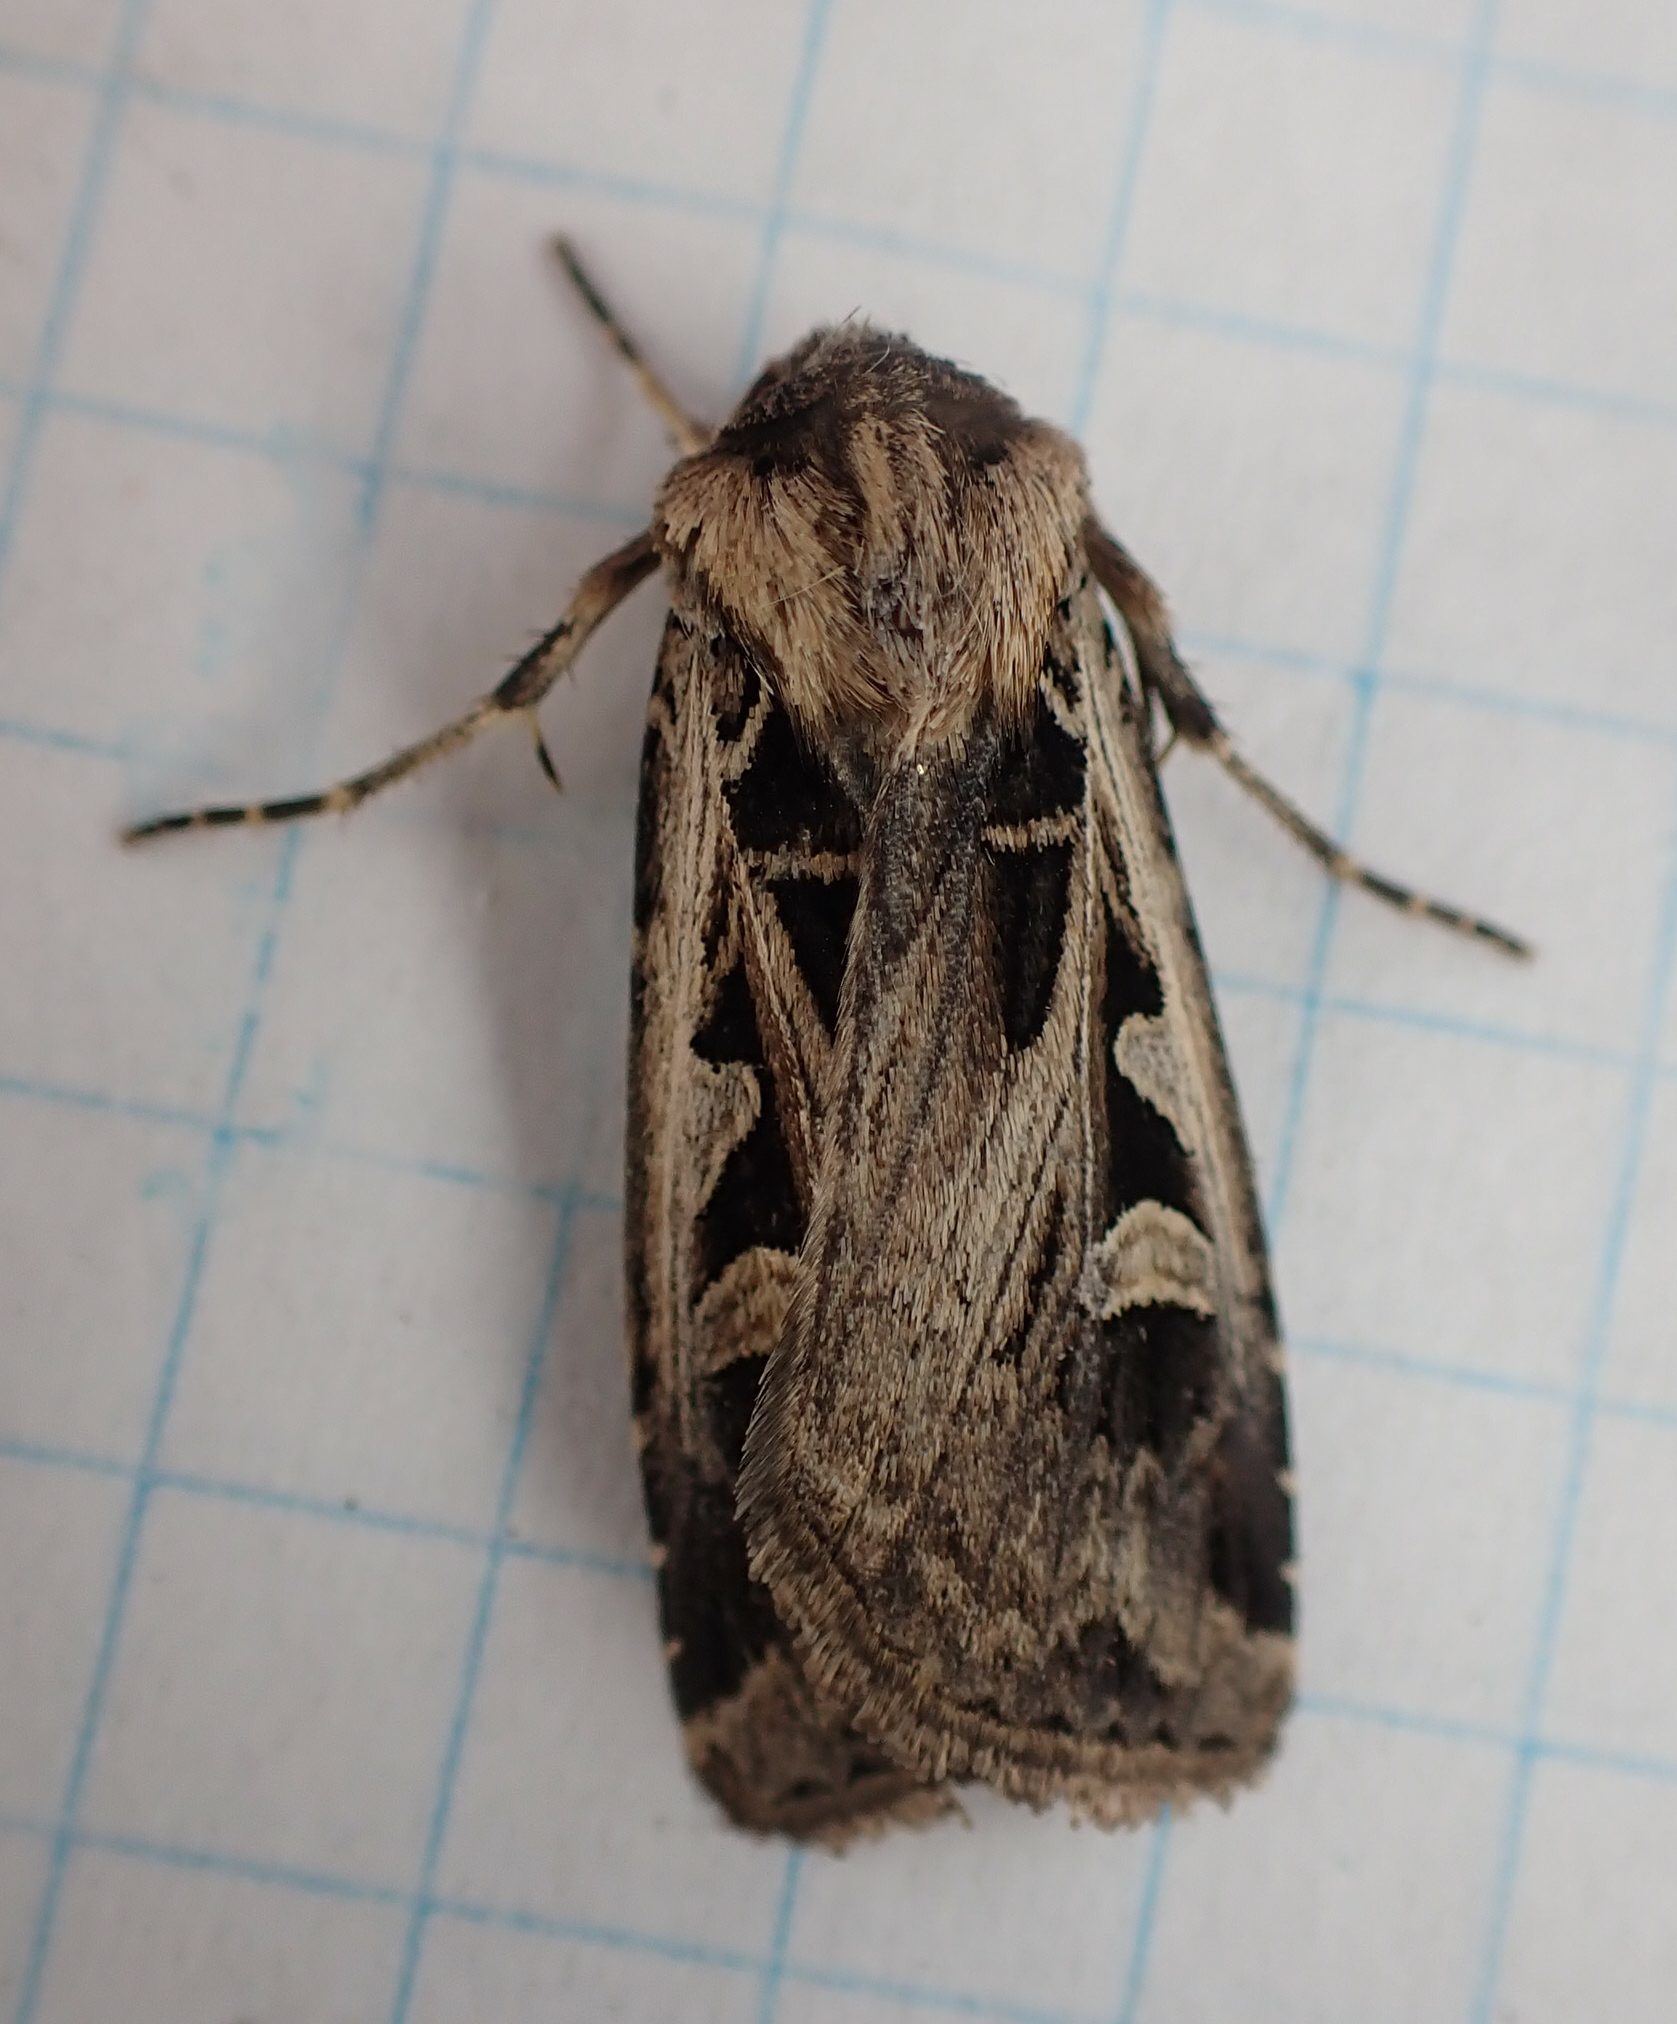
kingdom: Animalia
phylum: Arthropoda
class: Insecta
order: Lepidoptera
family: Noctuidae
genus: Feltia
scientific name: Feltia tricosa
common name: Confused dart moth
